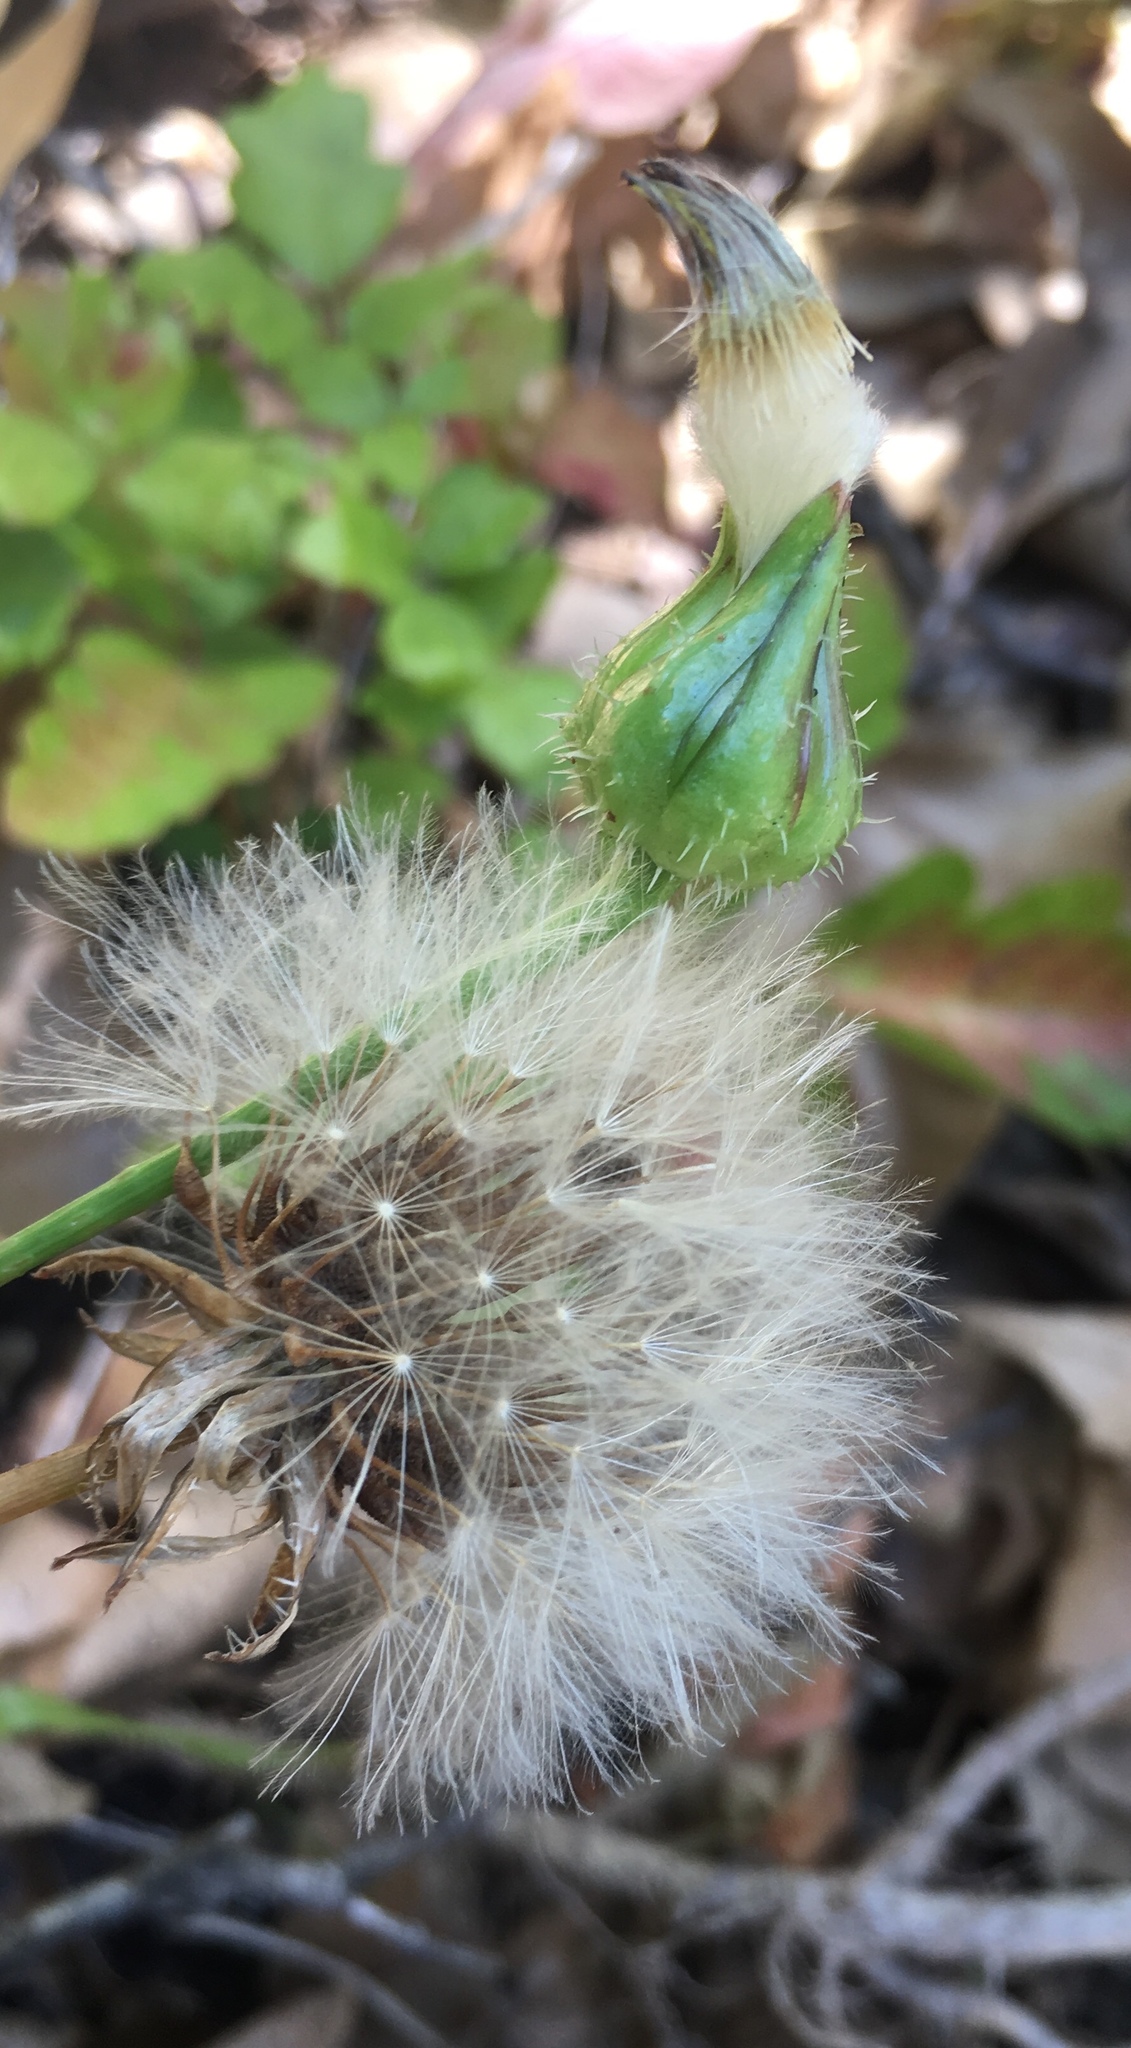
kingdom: Plantae
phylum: Tracheophyta
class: Magnoliopsida
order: Asterales
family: Asteraceae
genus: Urospermum
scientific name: Urospermum picroides
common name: False hawkbit
